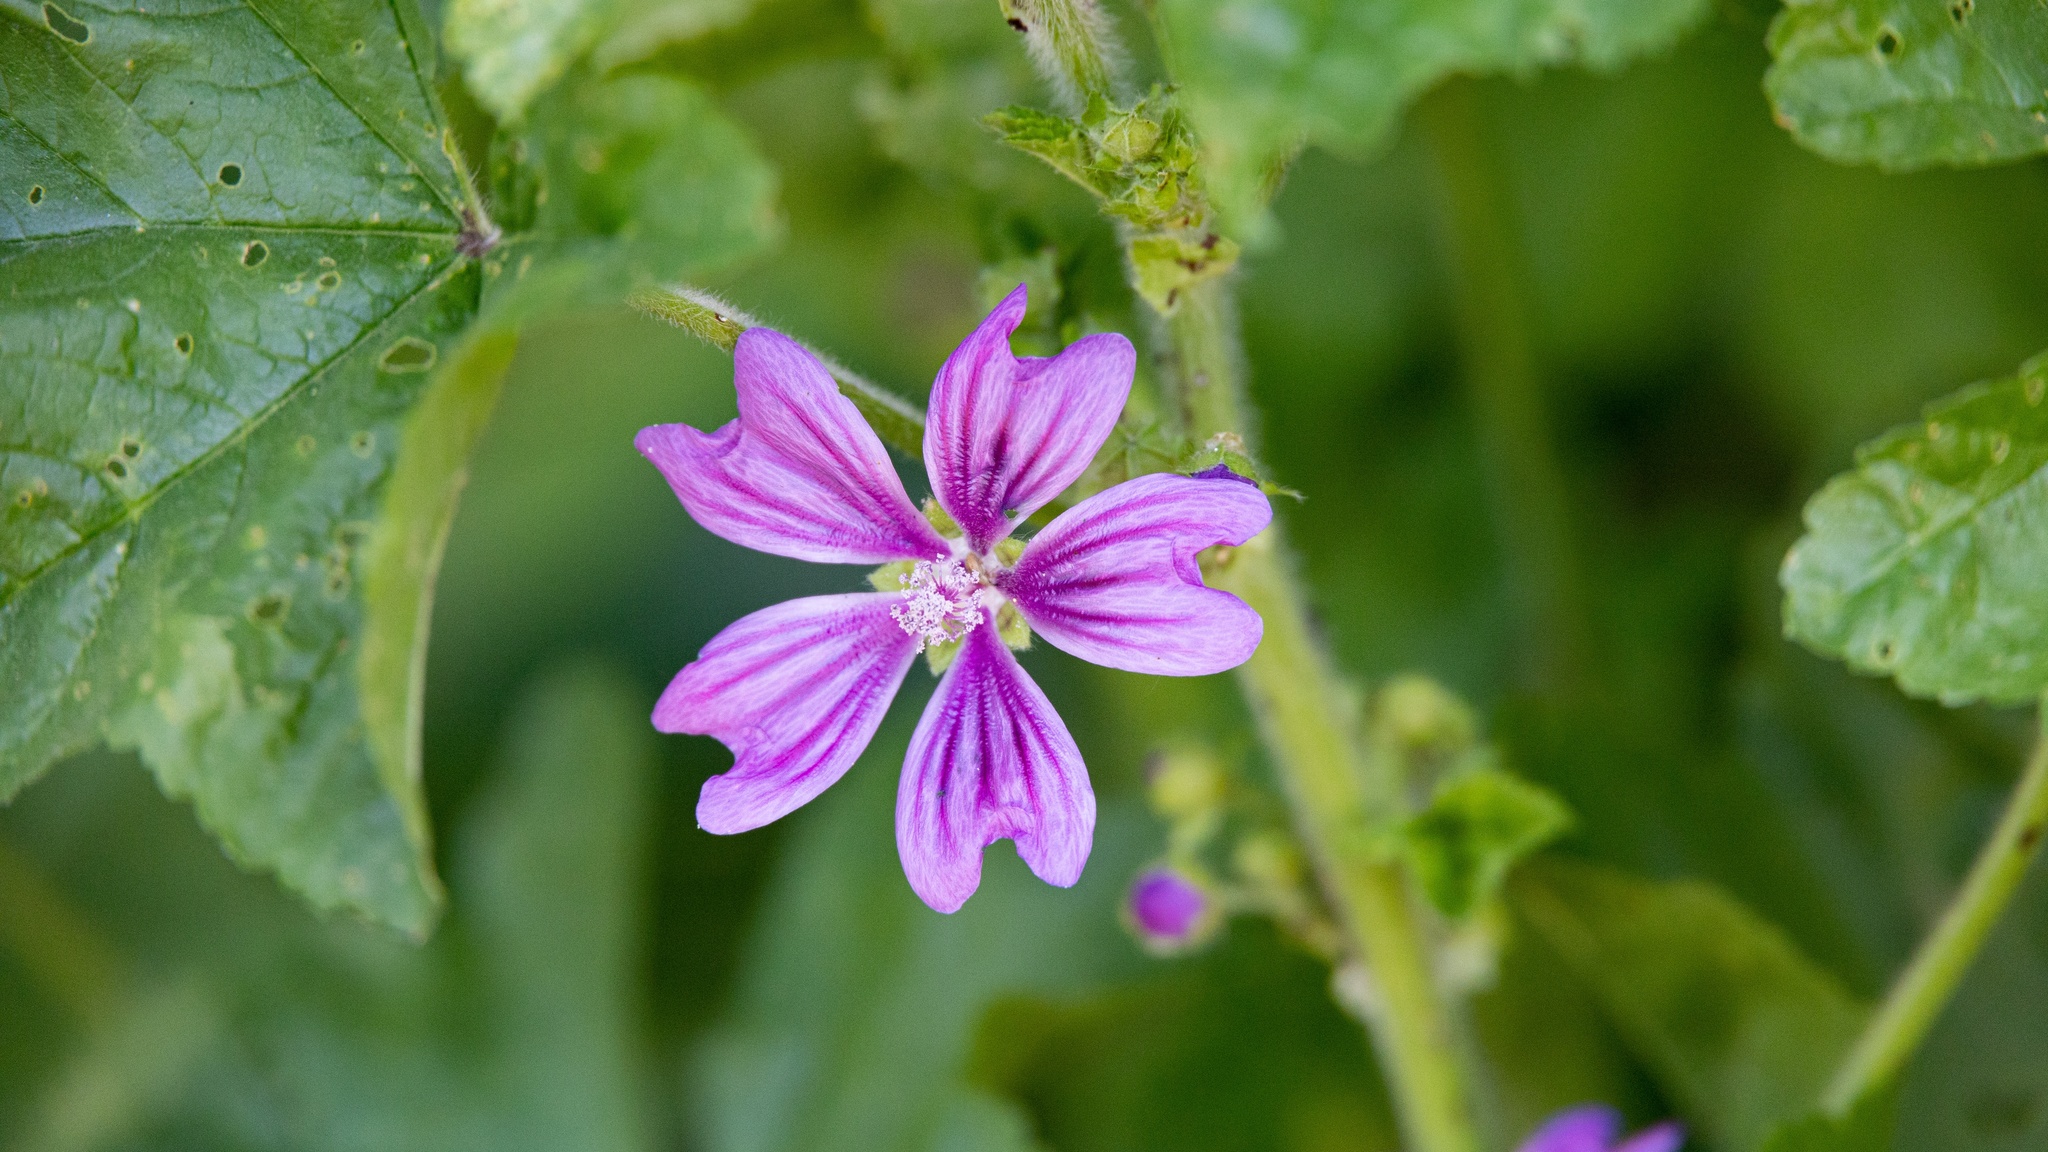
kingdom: Plantae
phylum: Tracheophyta
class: Magnoliopsida
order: Malvales
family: Malvaceae
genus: Malva
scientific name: Malva sylvestris
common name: Common mallow
